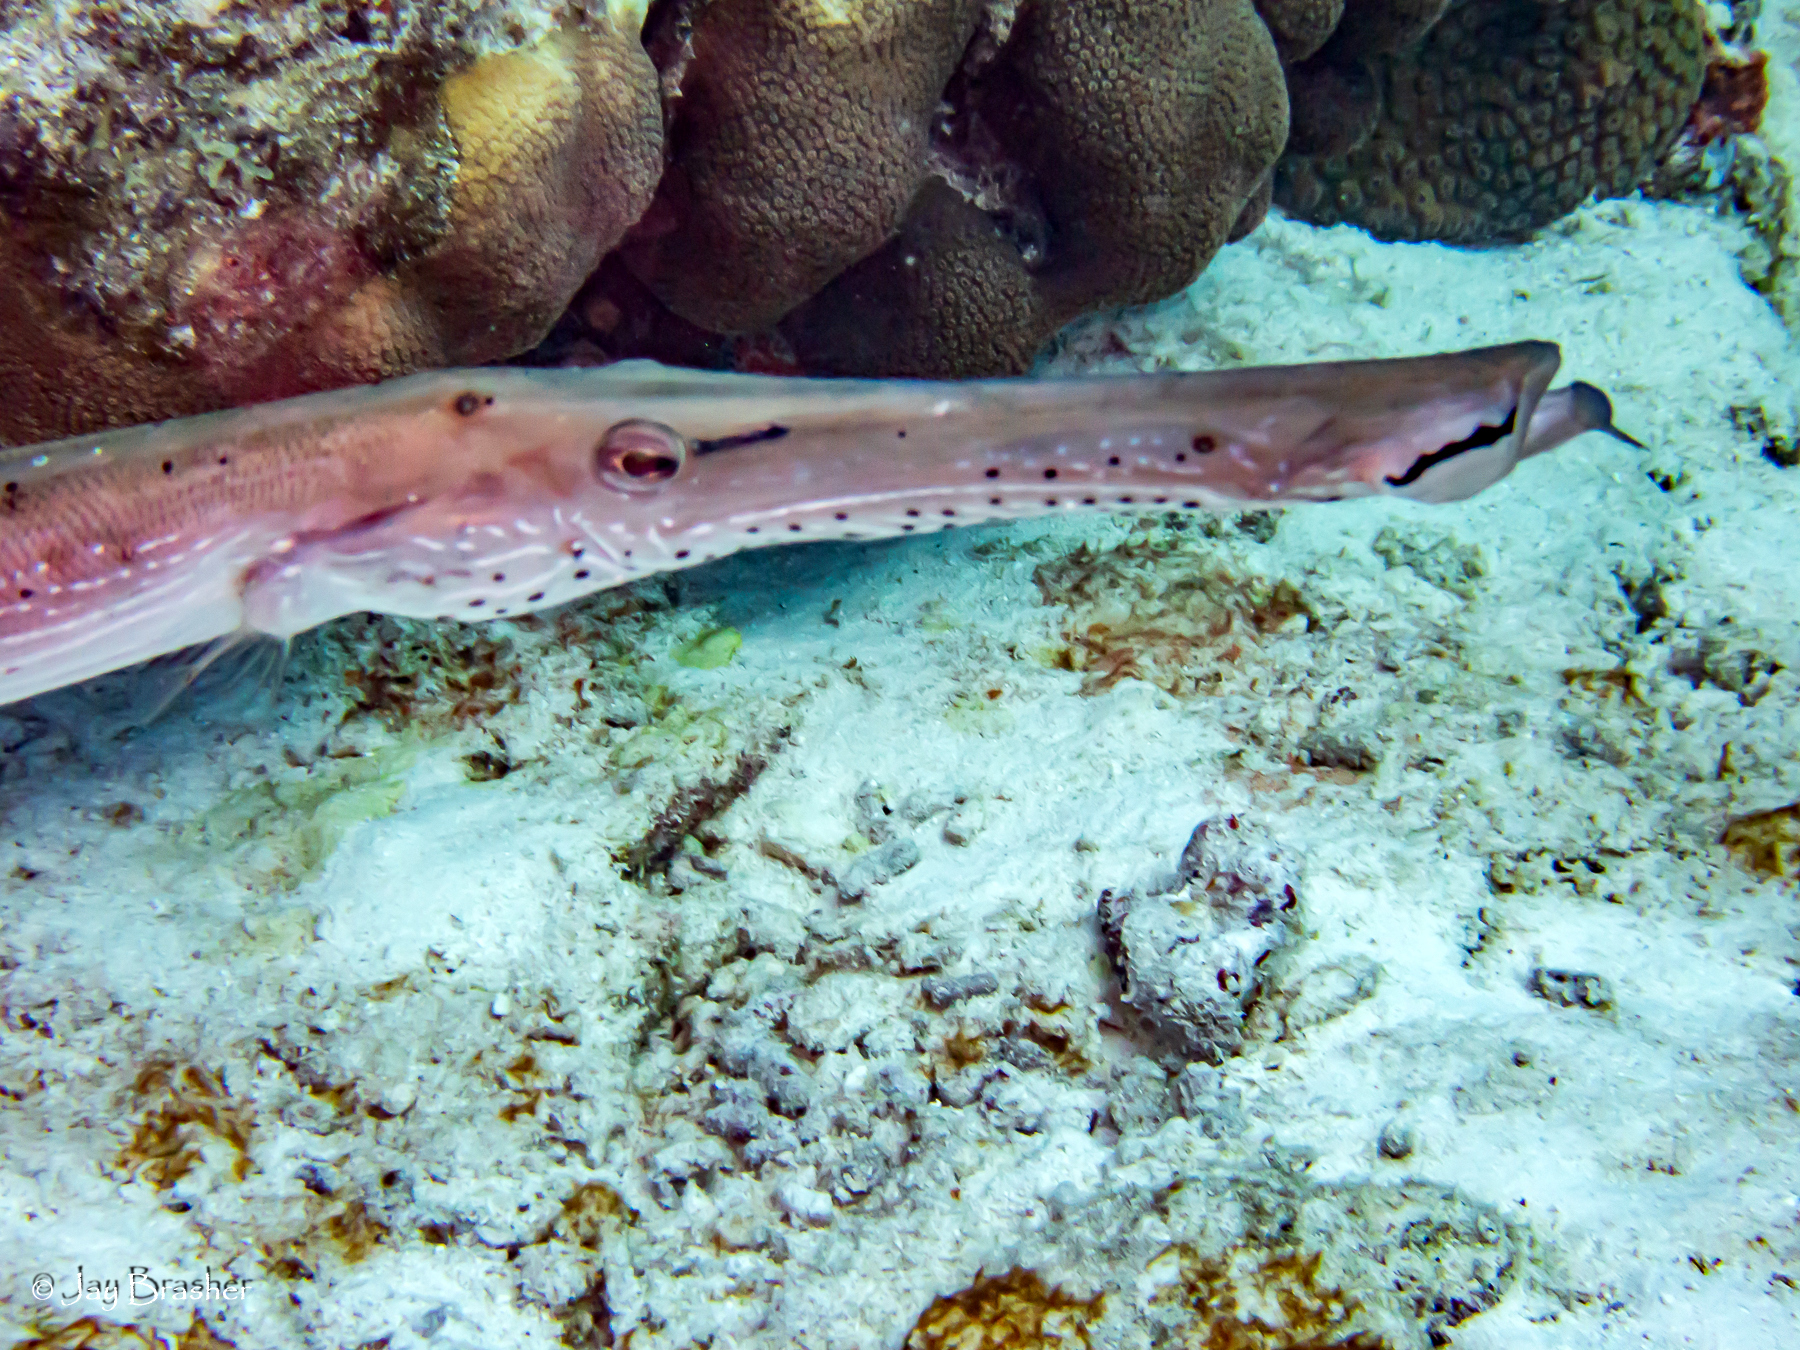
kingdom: Animalia
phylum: Chordata
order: Syngnathiformes
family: Aulostomidae
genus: Aulostomus
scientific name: Aulostomus maculatus
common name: West atlantic trumpetfish
